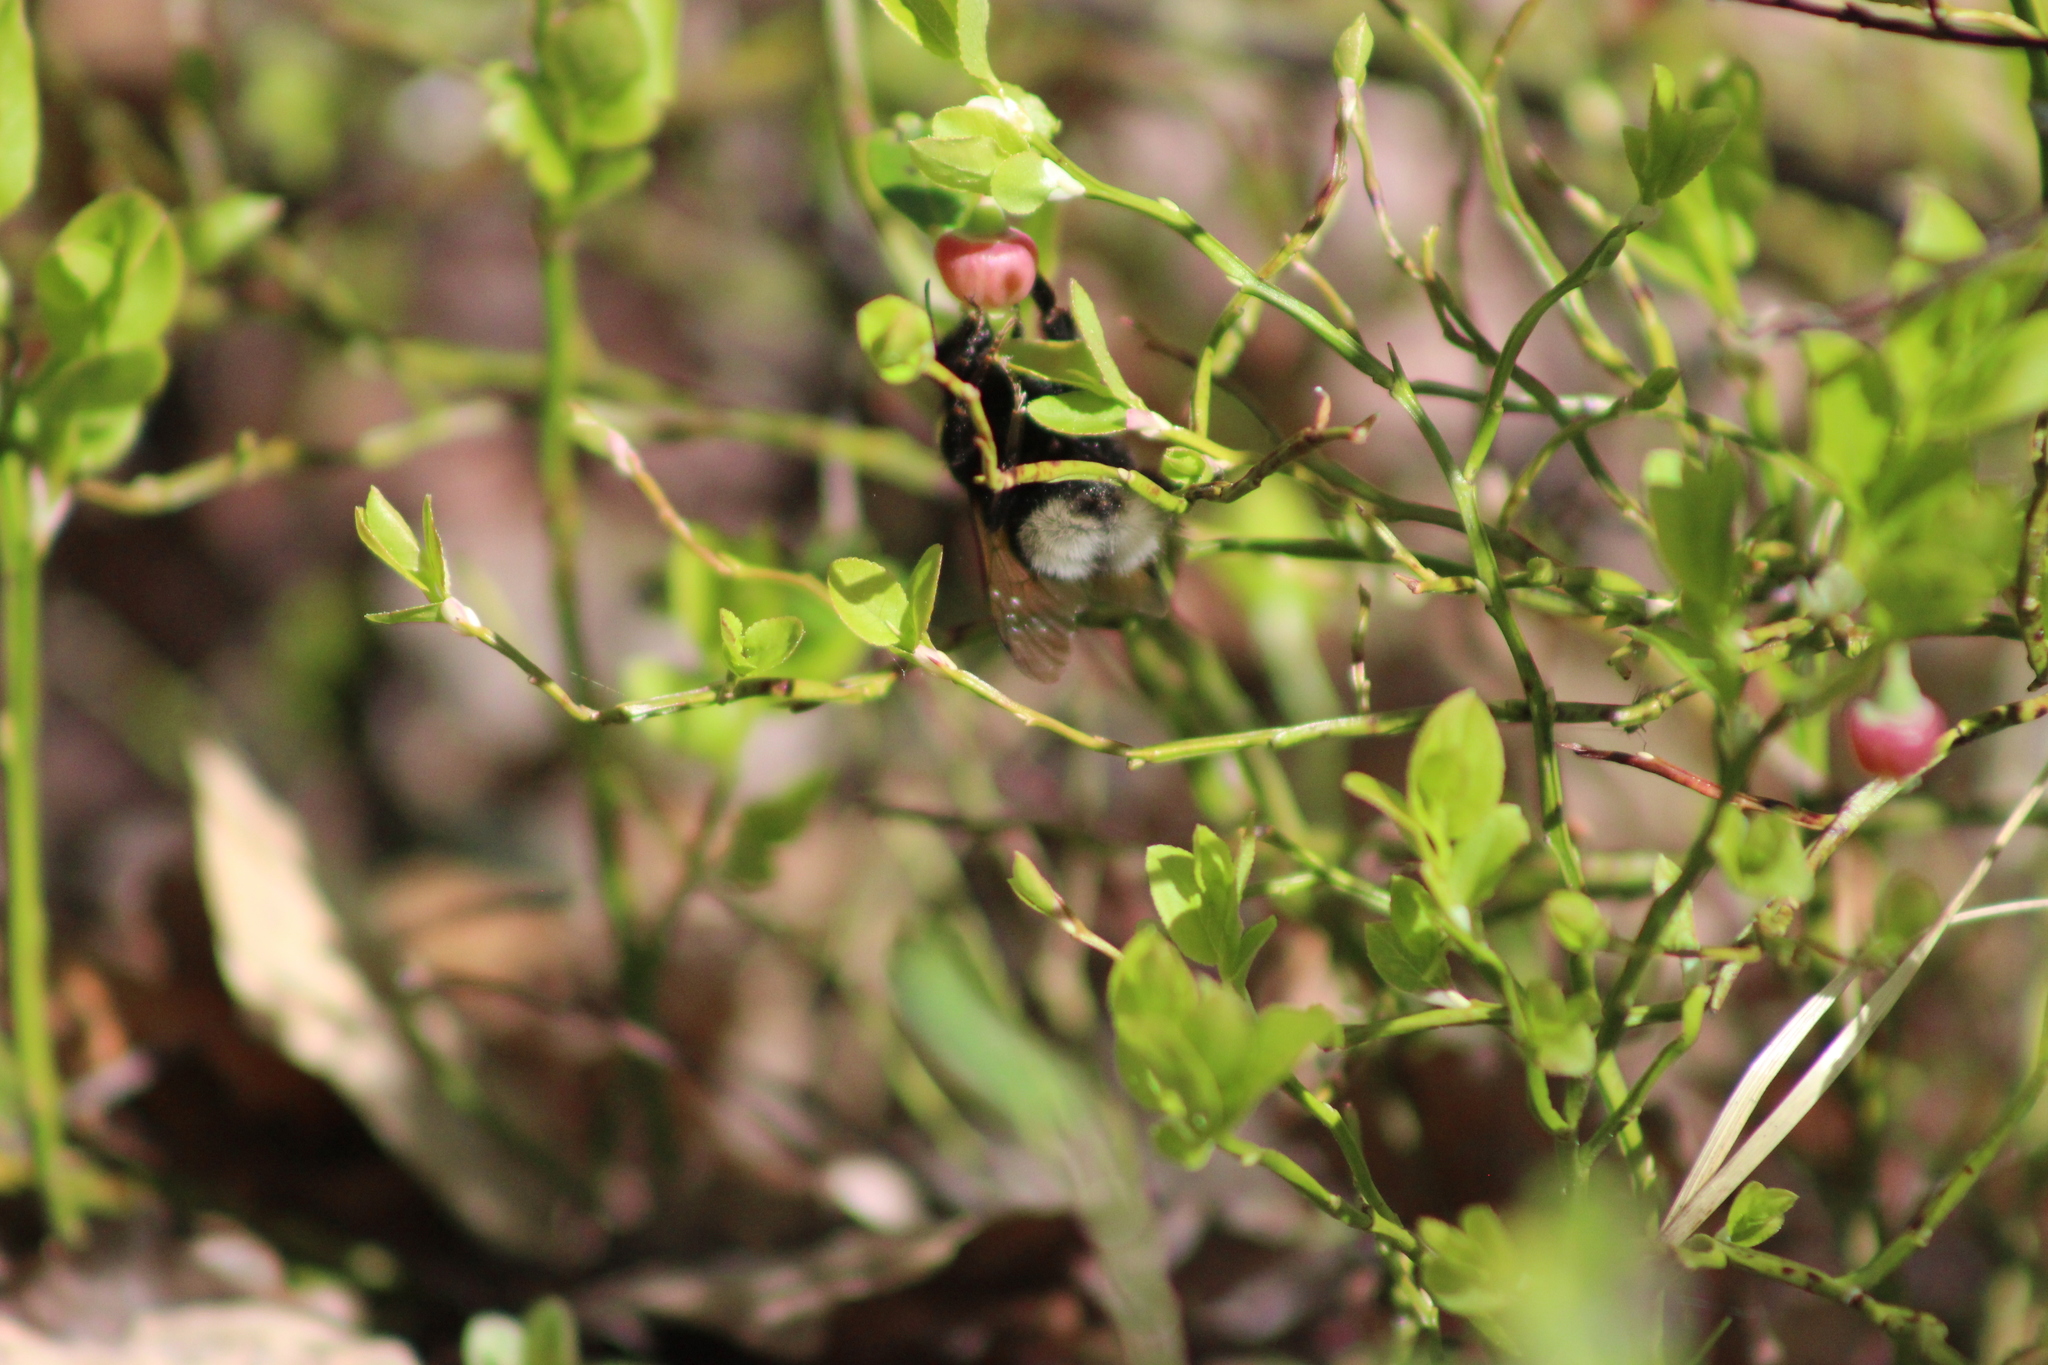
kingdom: Animalia
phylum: Arthropoda
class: Insecta
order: Hymenoptera
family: Apidae
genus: Bombus
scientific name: Bombus
